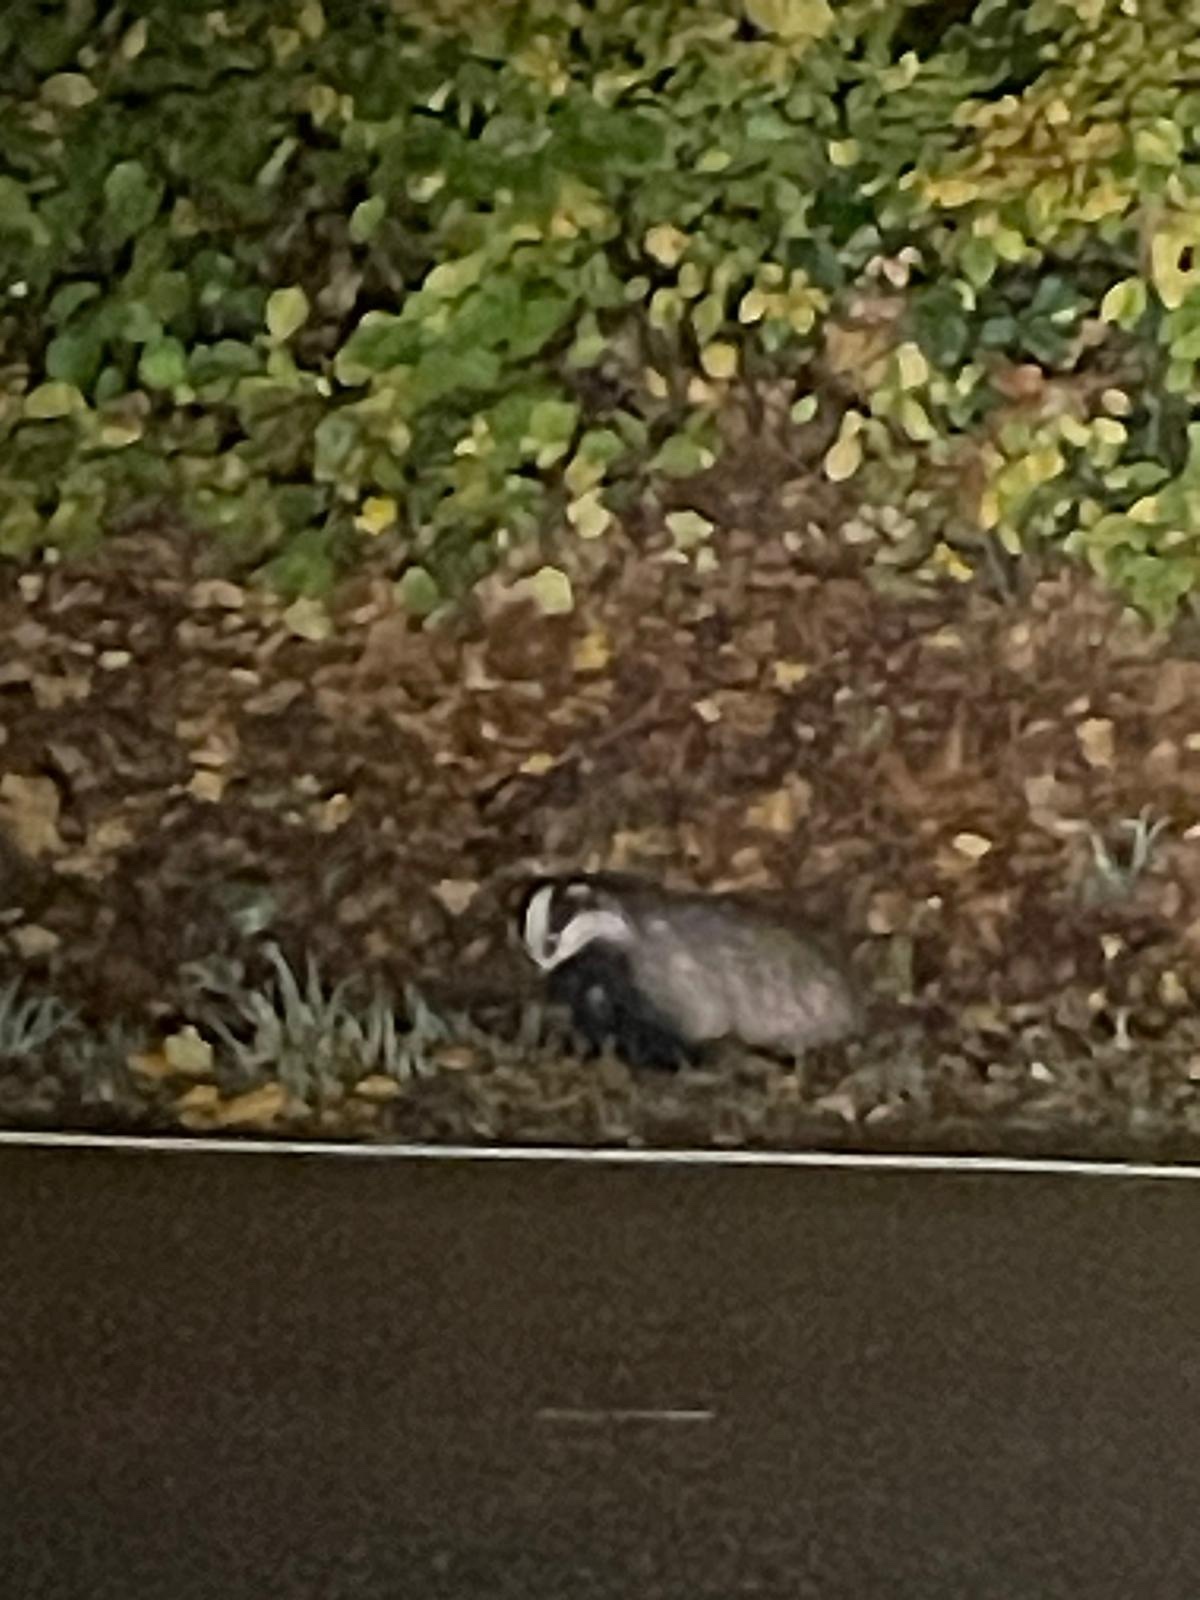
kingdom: Animalia
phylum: Chordata
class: Mammalia
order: Carnivora
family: Mustelidae
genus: Meles
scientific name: Meles meles
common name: Eurasian badger
